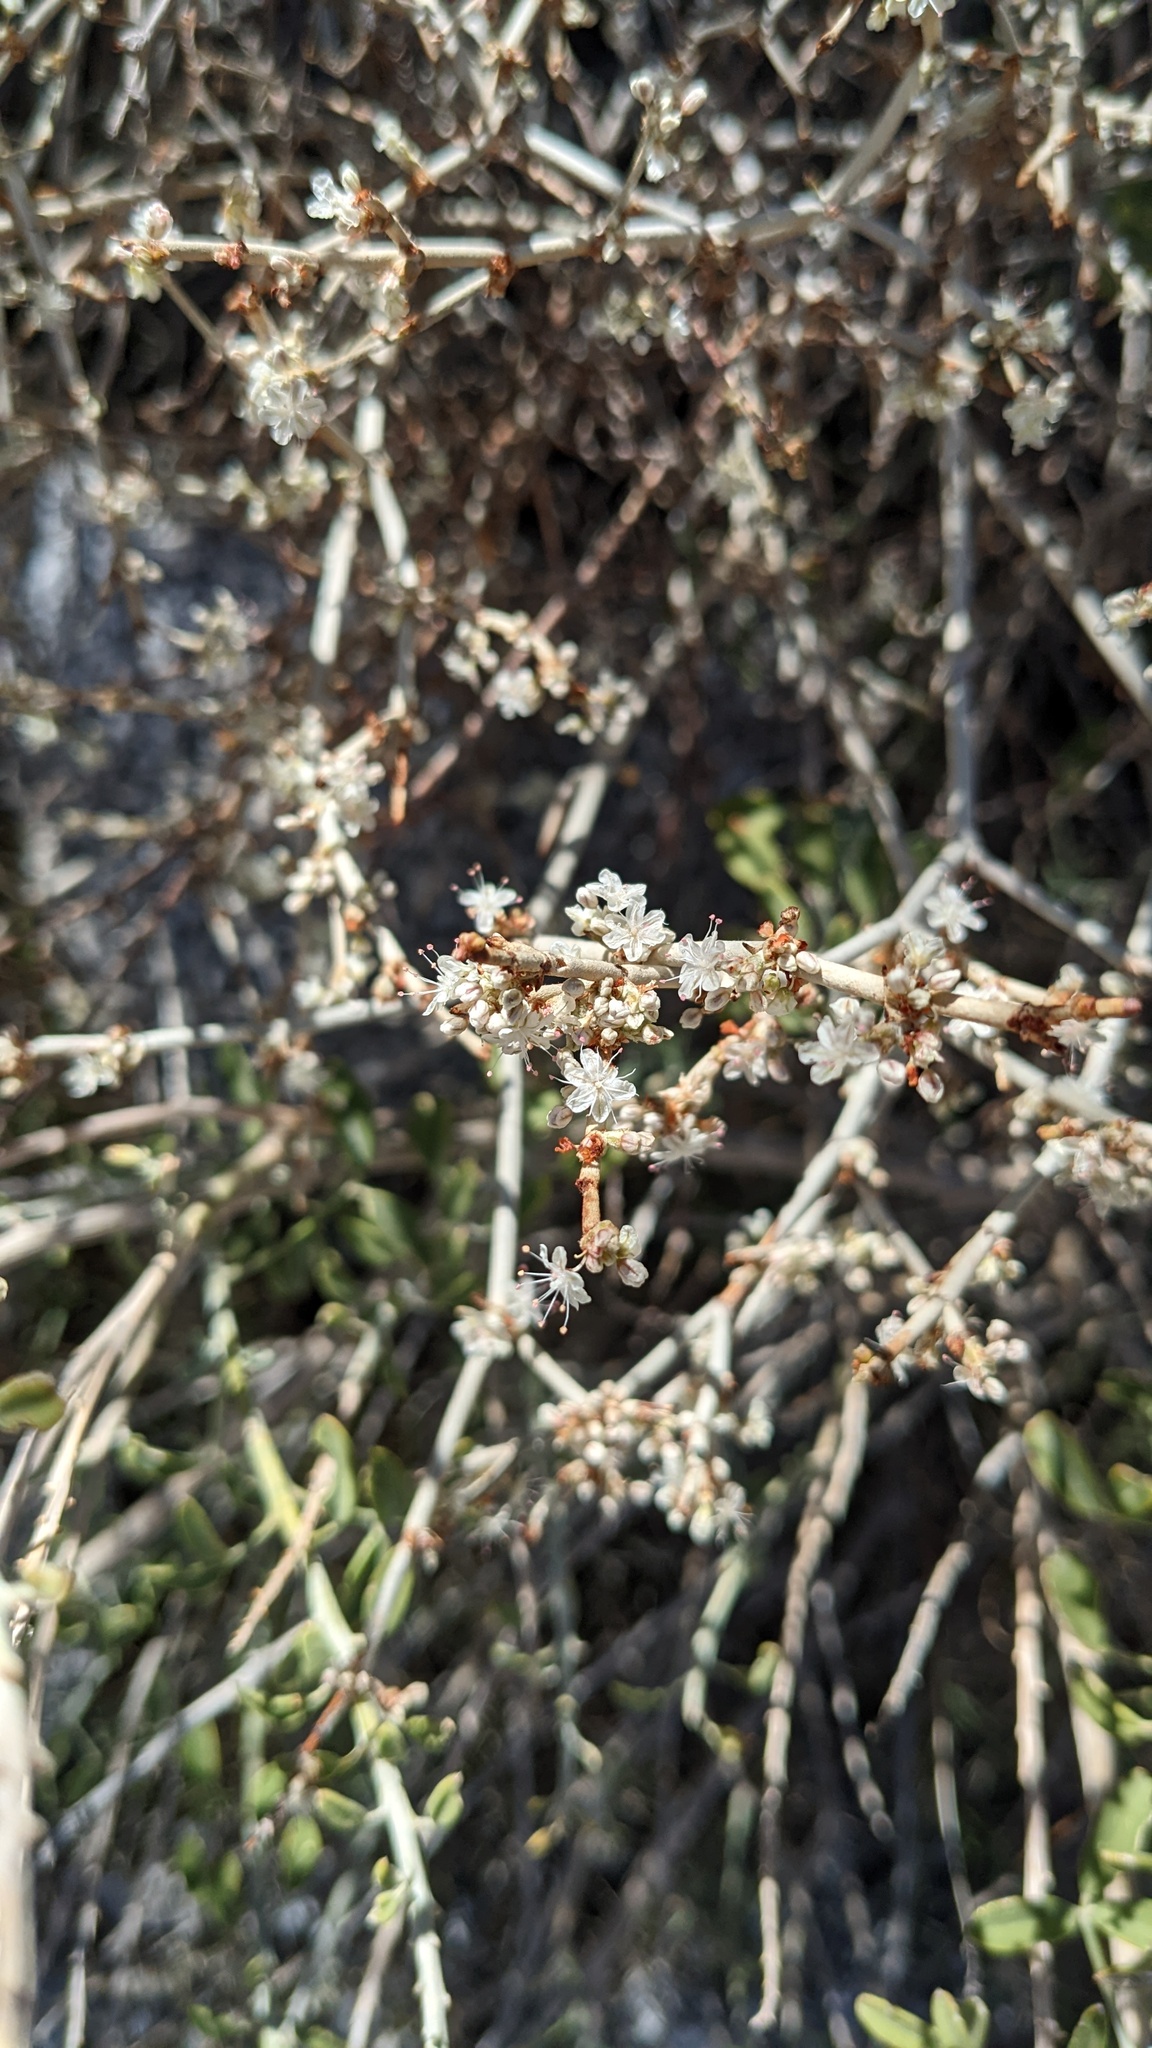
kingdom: Plantae
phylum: Tracheophyta
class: Magnoliopsida
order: Caryophyllales
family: Polygonaceae
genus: Eriogonum
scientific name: Eriogonum wrightii
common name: Bastard-sage
